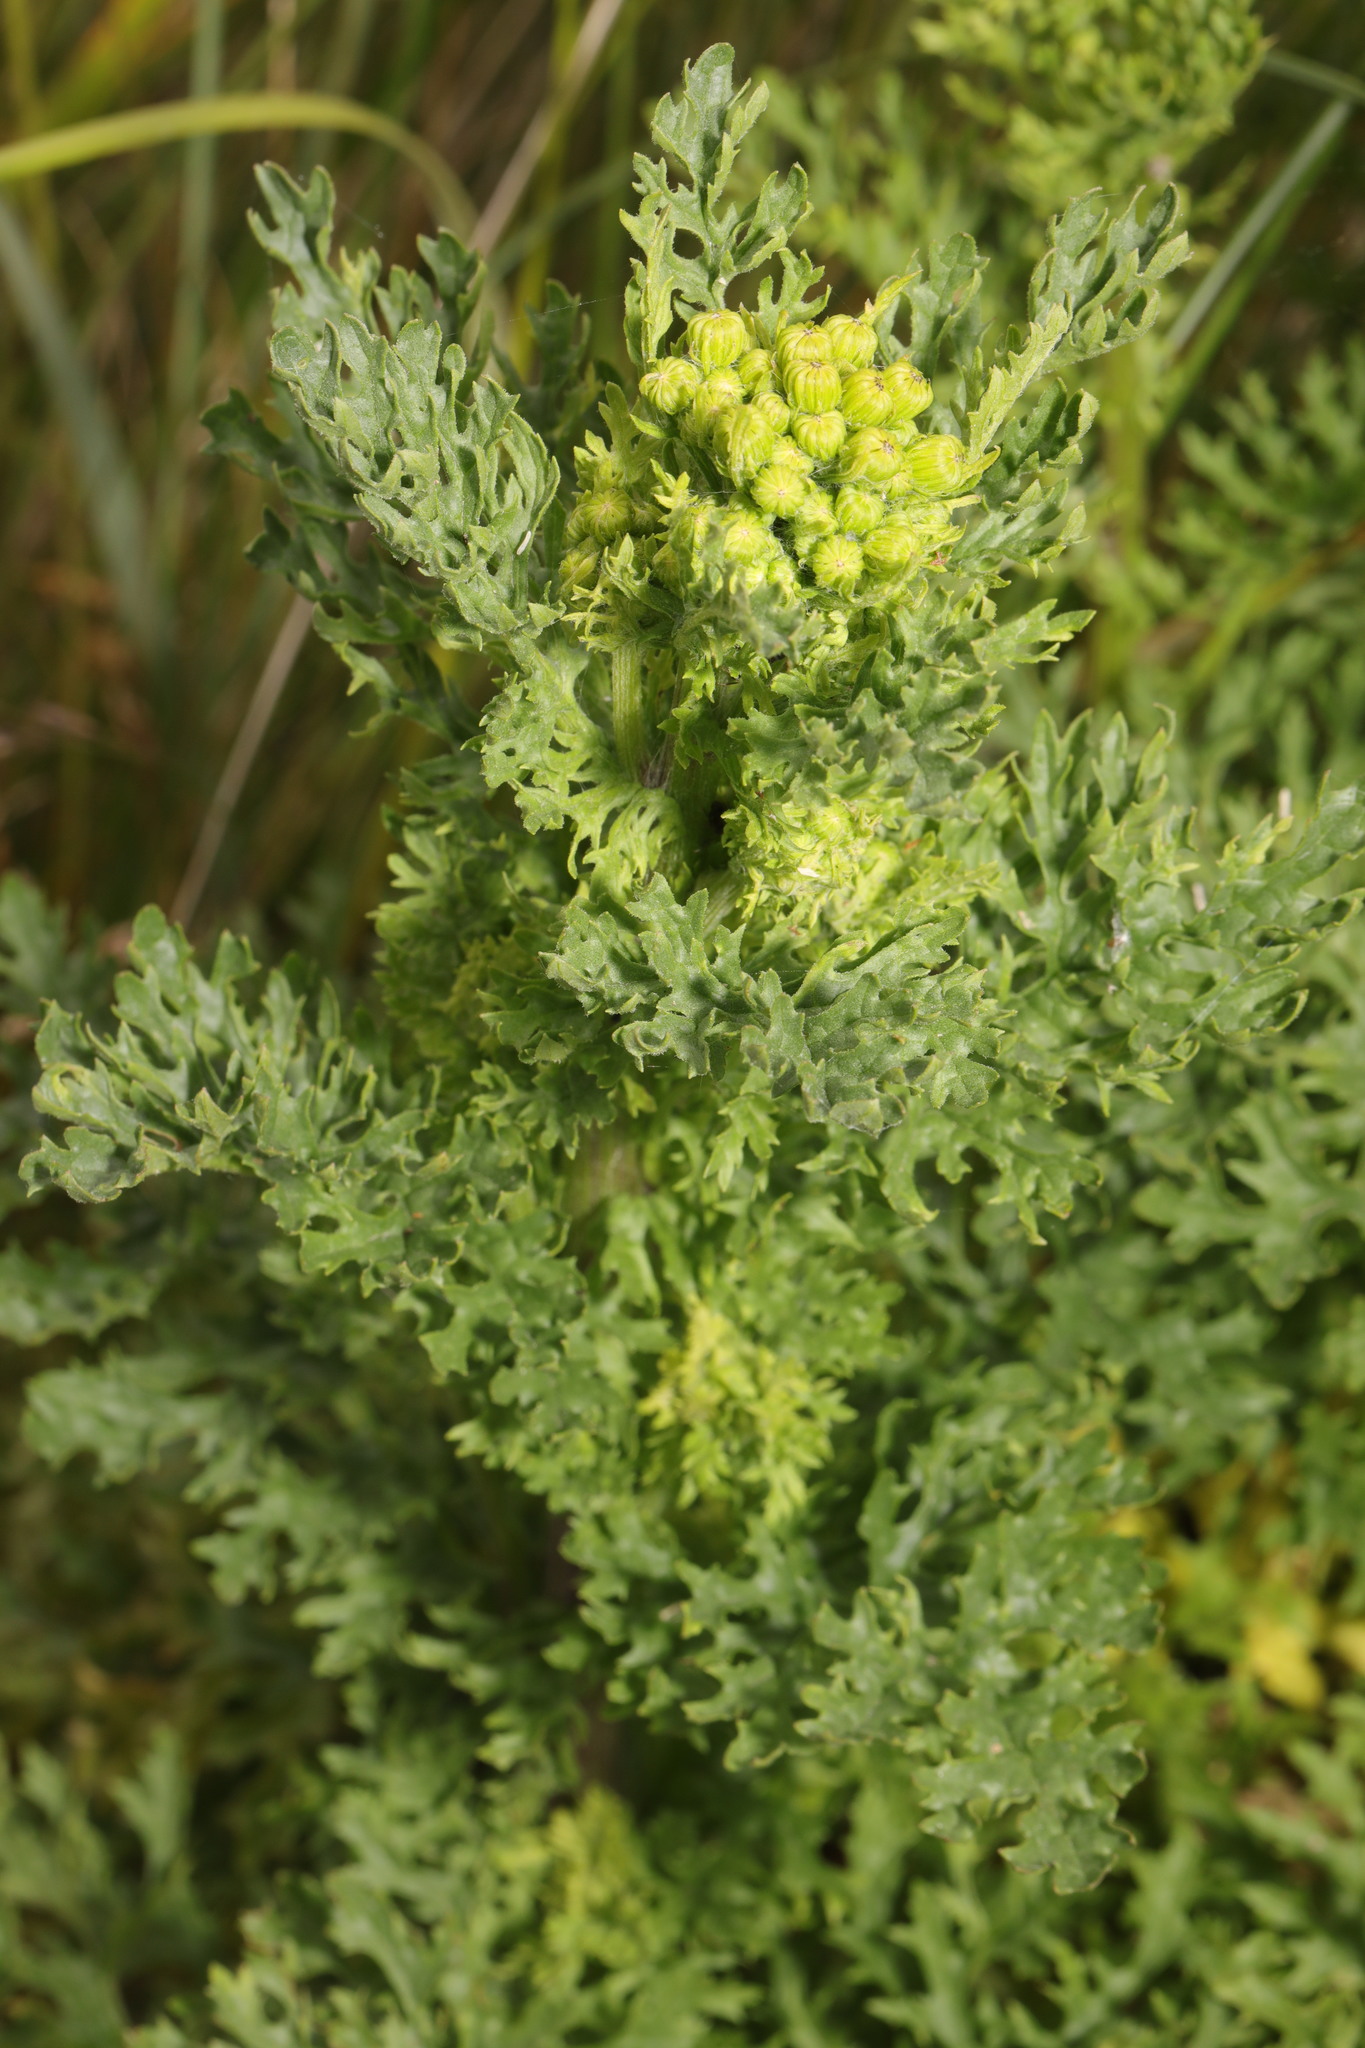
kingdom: Plantae
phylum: Tracheophyta
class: Magnoliopsida
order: Asterales
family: Asteraceae
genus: Jacobaea
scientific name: Jacobaea vulgaris
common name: Stinking willie
